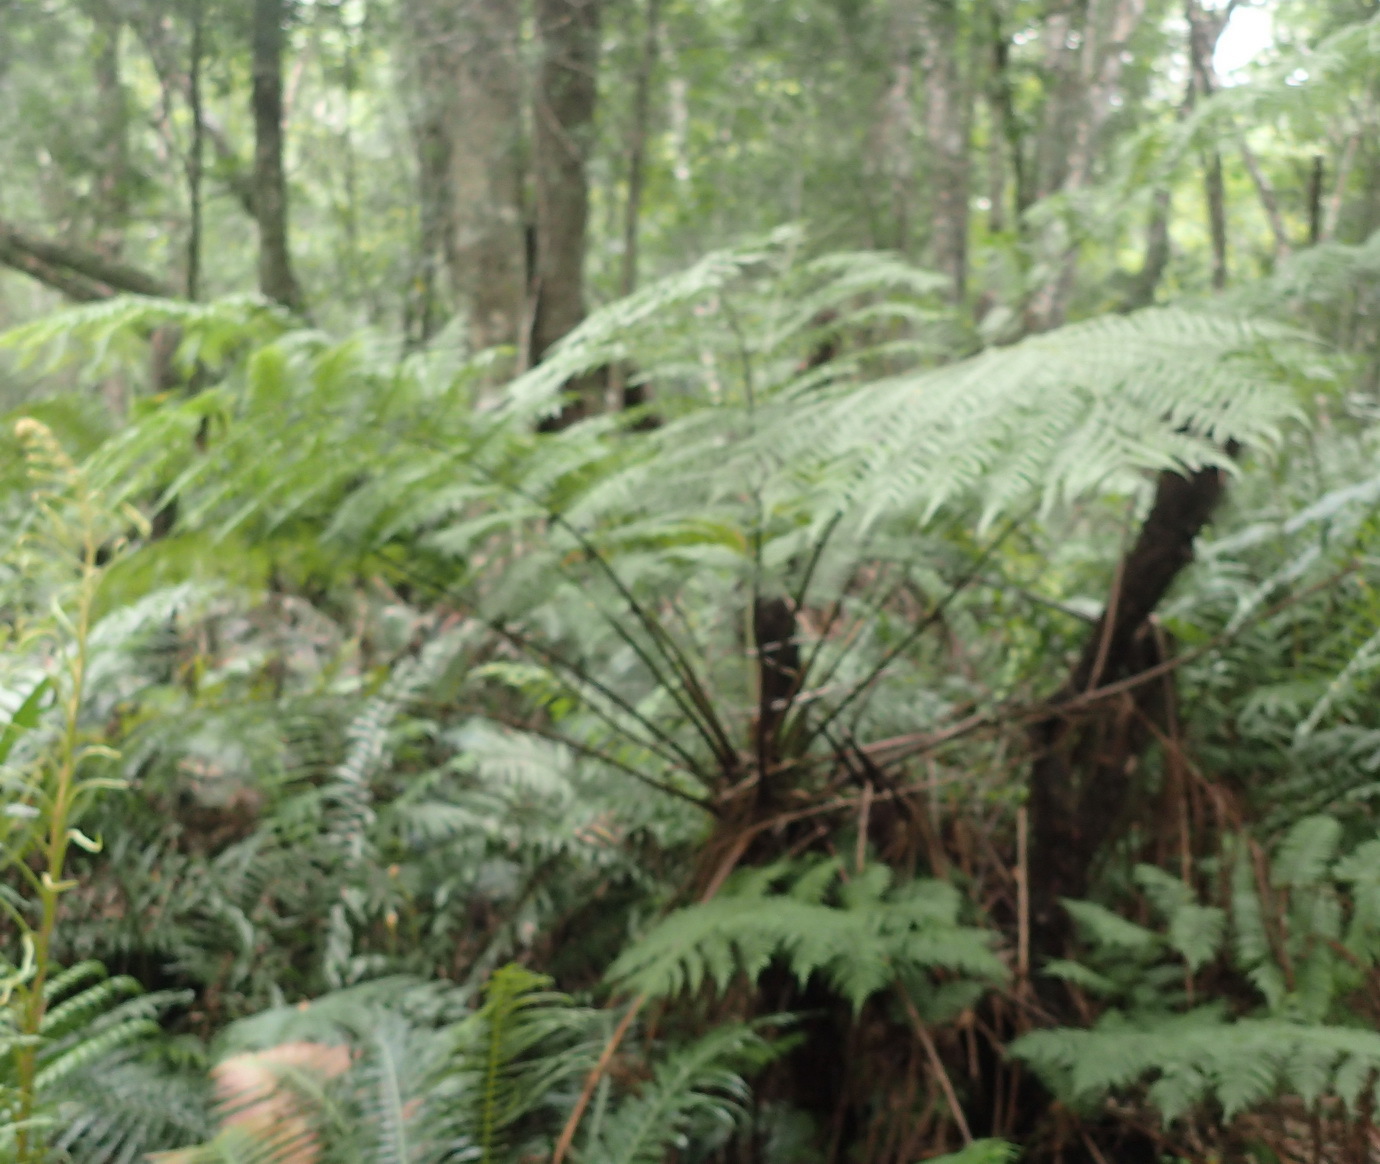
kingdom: Plantae
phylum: Tracheophyta
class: Polypodiopsida
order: Cyatheales
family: Cyatheaceae
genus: Gymnosphaera
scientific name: Gymnosphaera capensis
